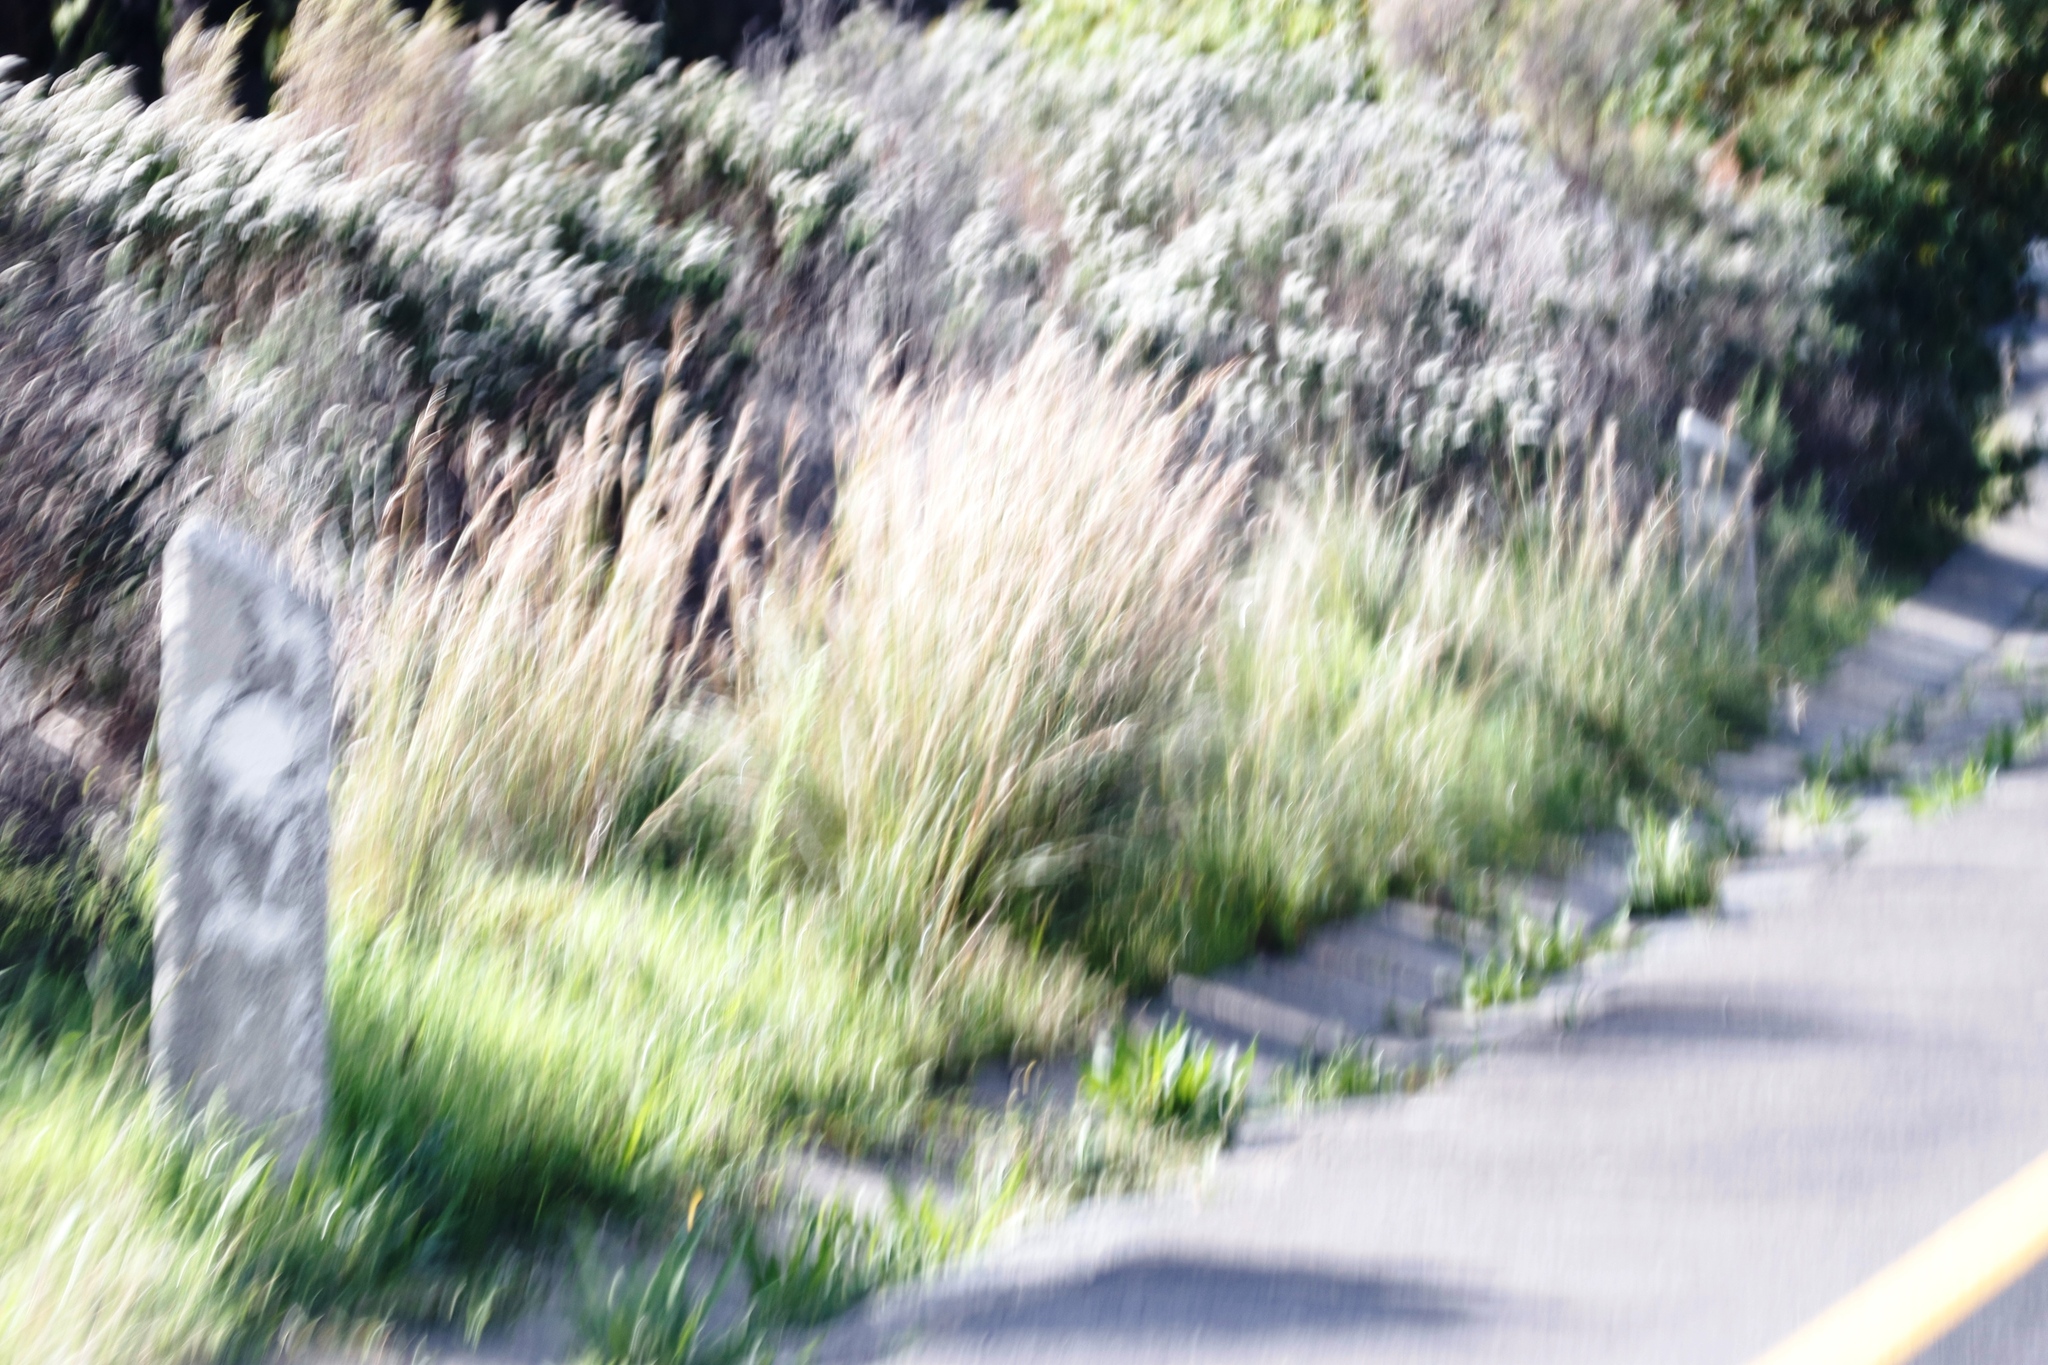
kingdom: Plantae
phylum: Tracheophyta
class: Liliopsida
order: Poales
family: Poaceae
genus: Hyparrhenia
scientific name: Hyparrhenia hirta
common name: Thatching grass
